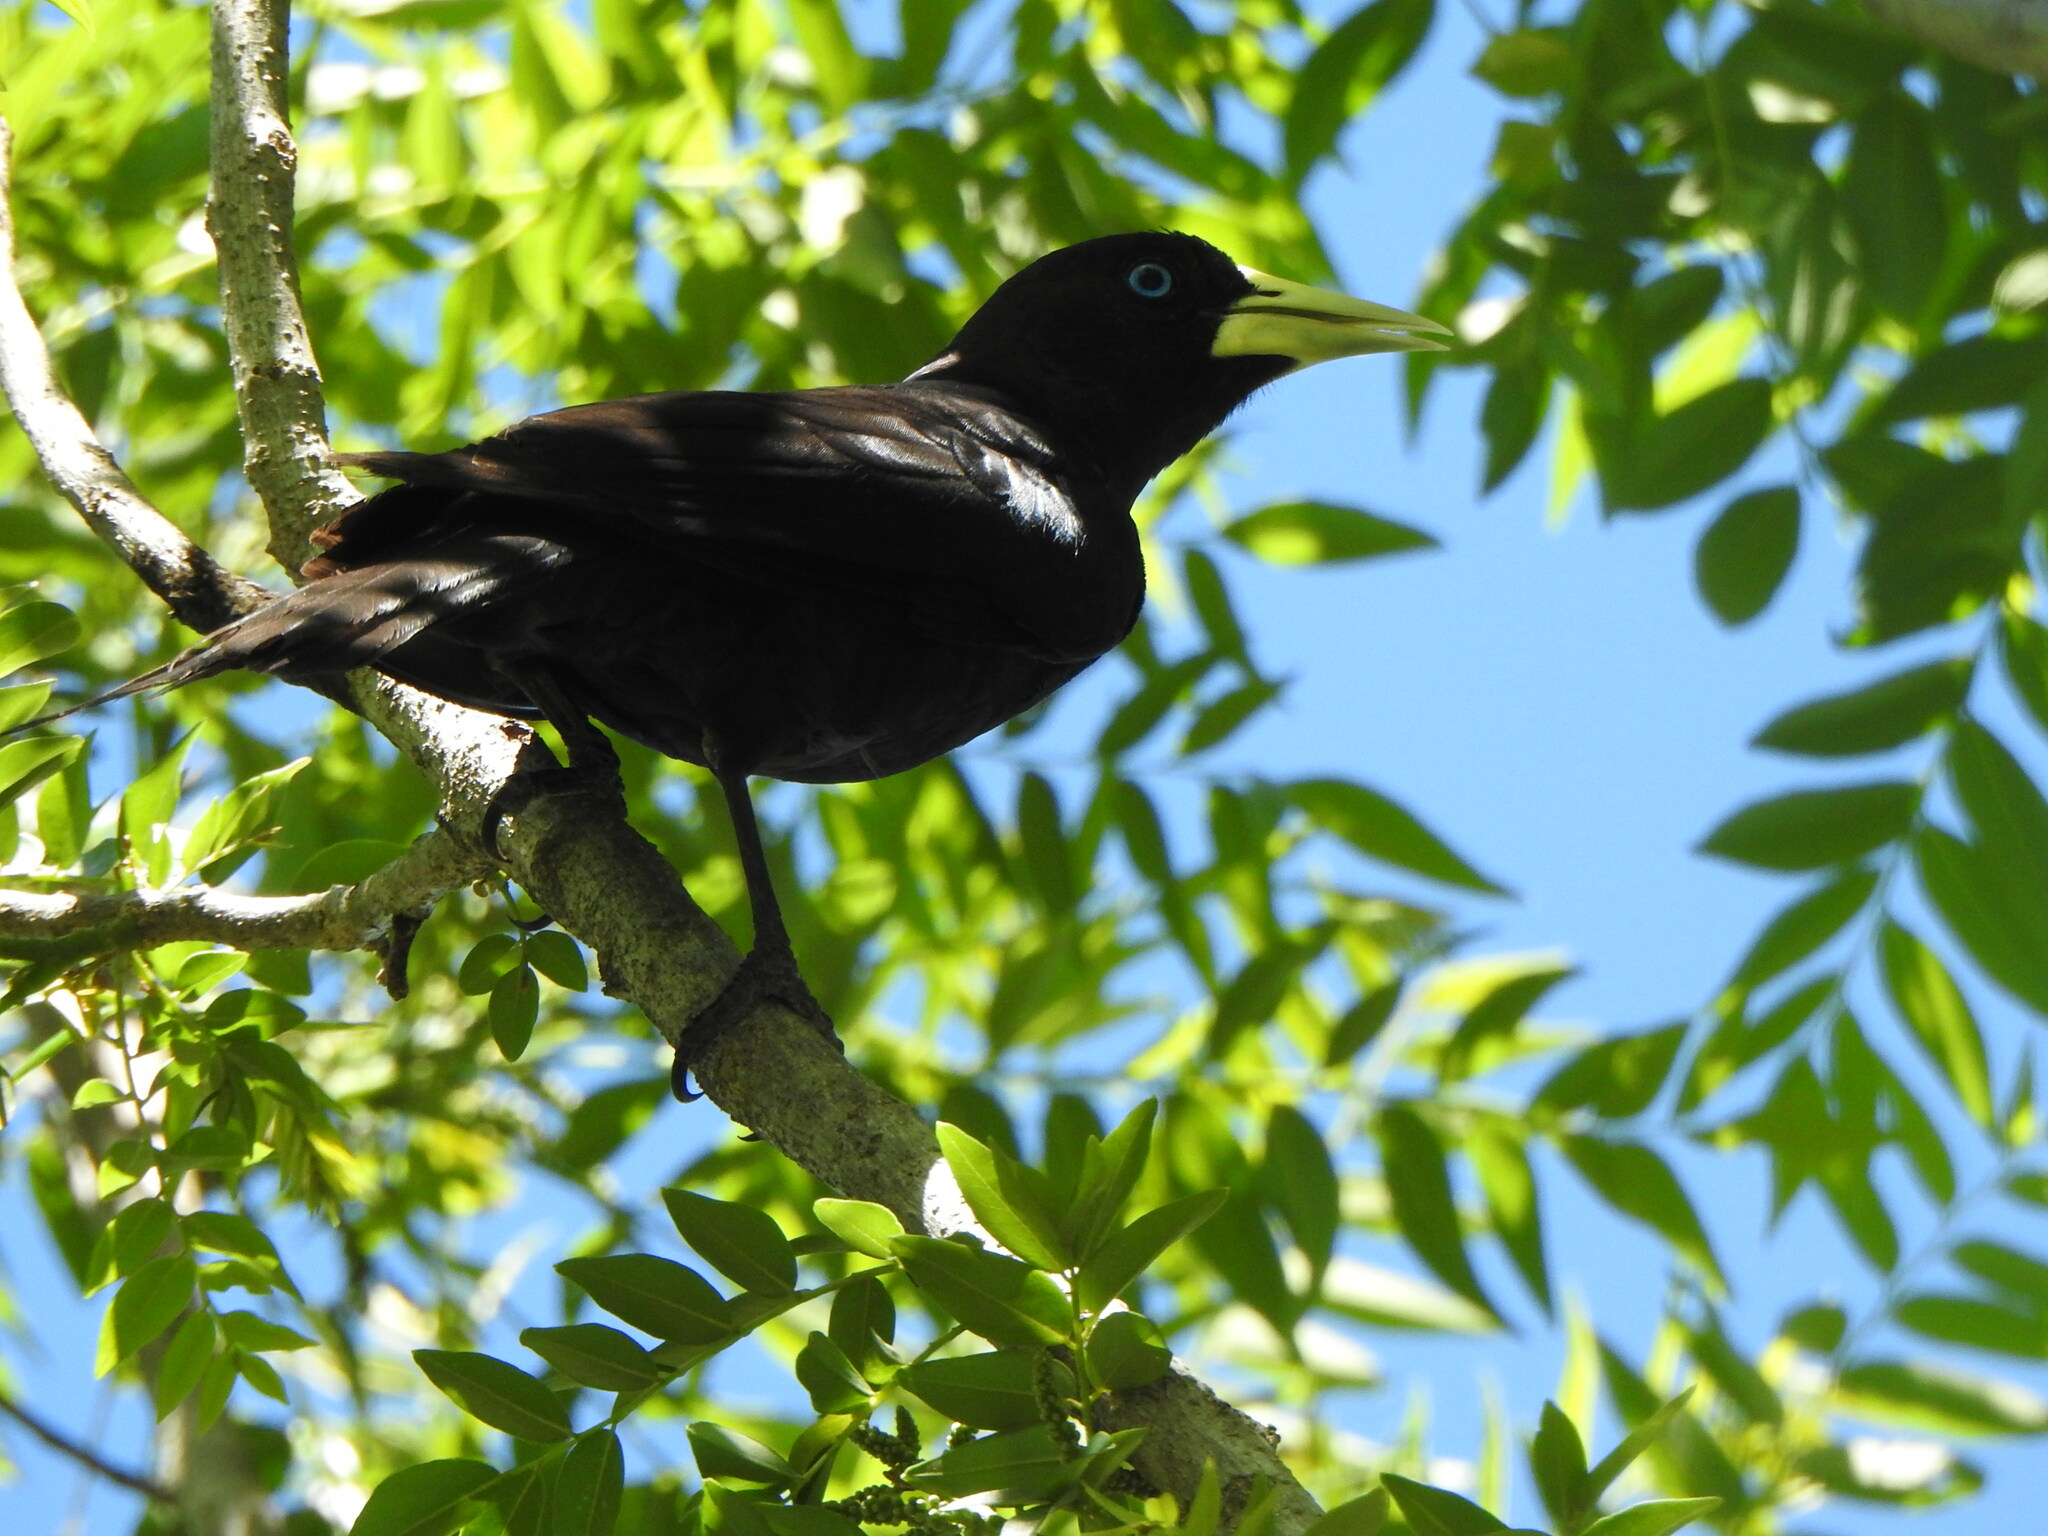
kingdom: Animalia
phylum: Chordata
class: Aves
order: Passeriformes
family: Icteridae
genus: Cacicus
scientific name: Cacicus haemorrhous
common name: Red-rumped cacique
